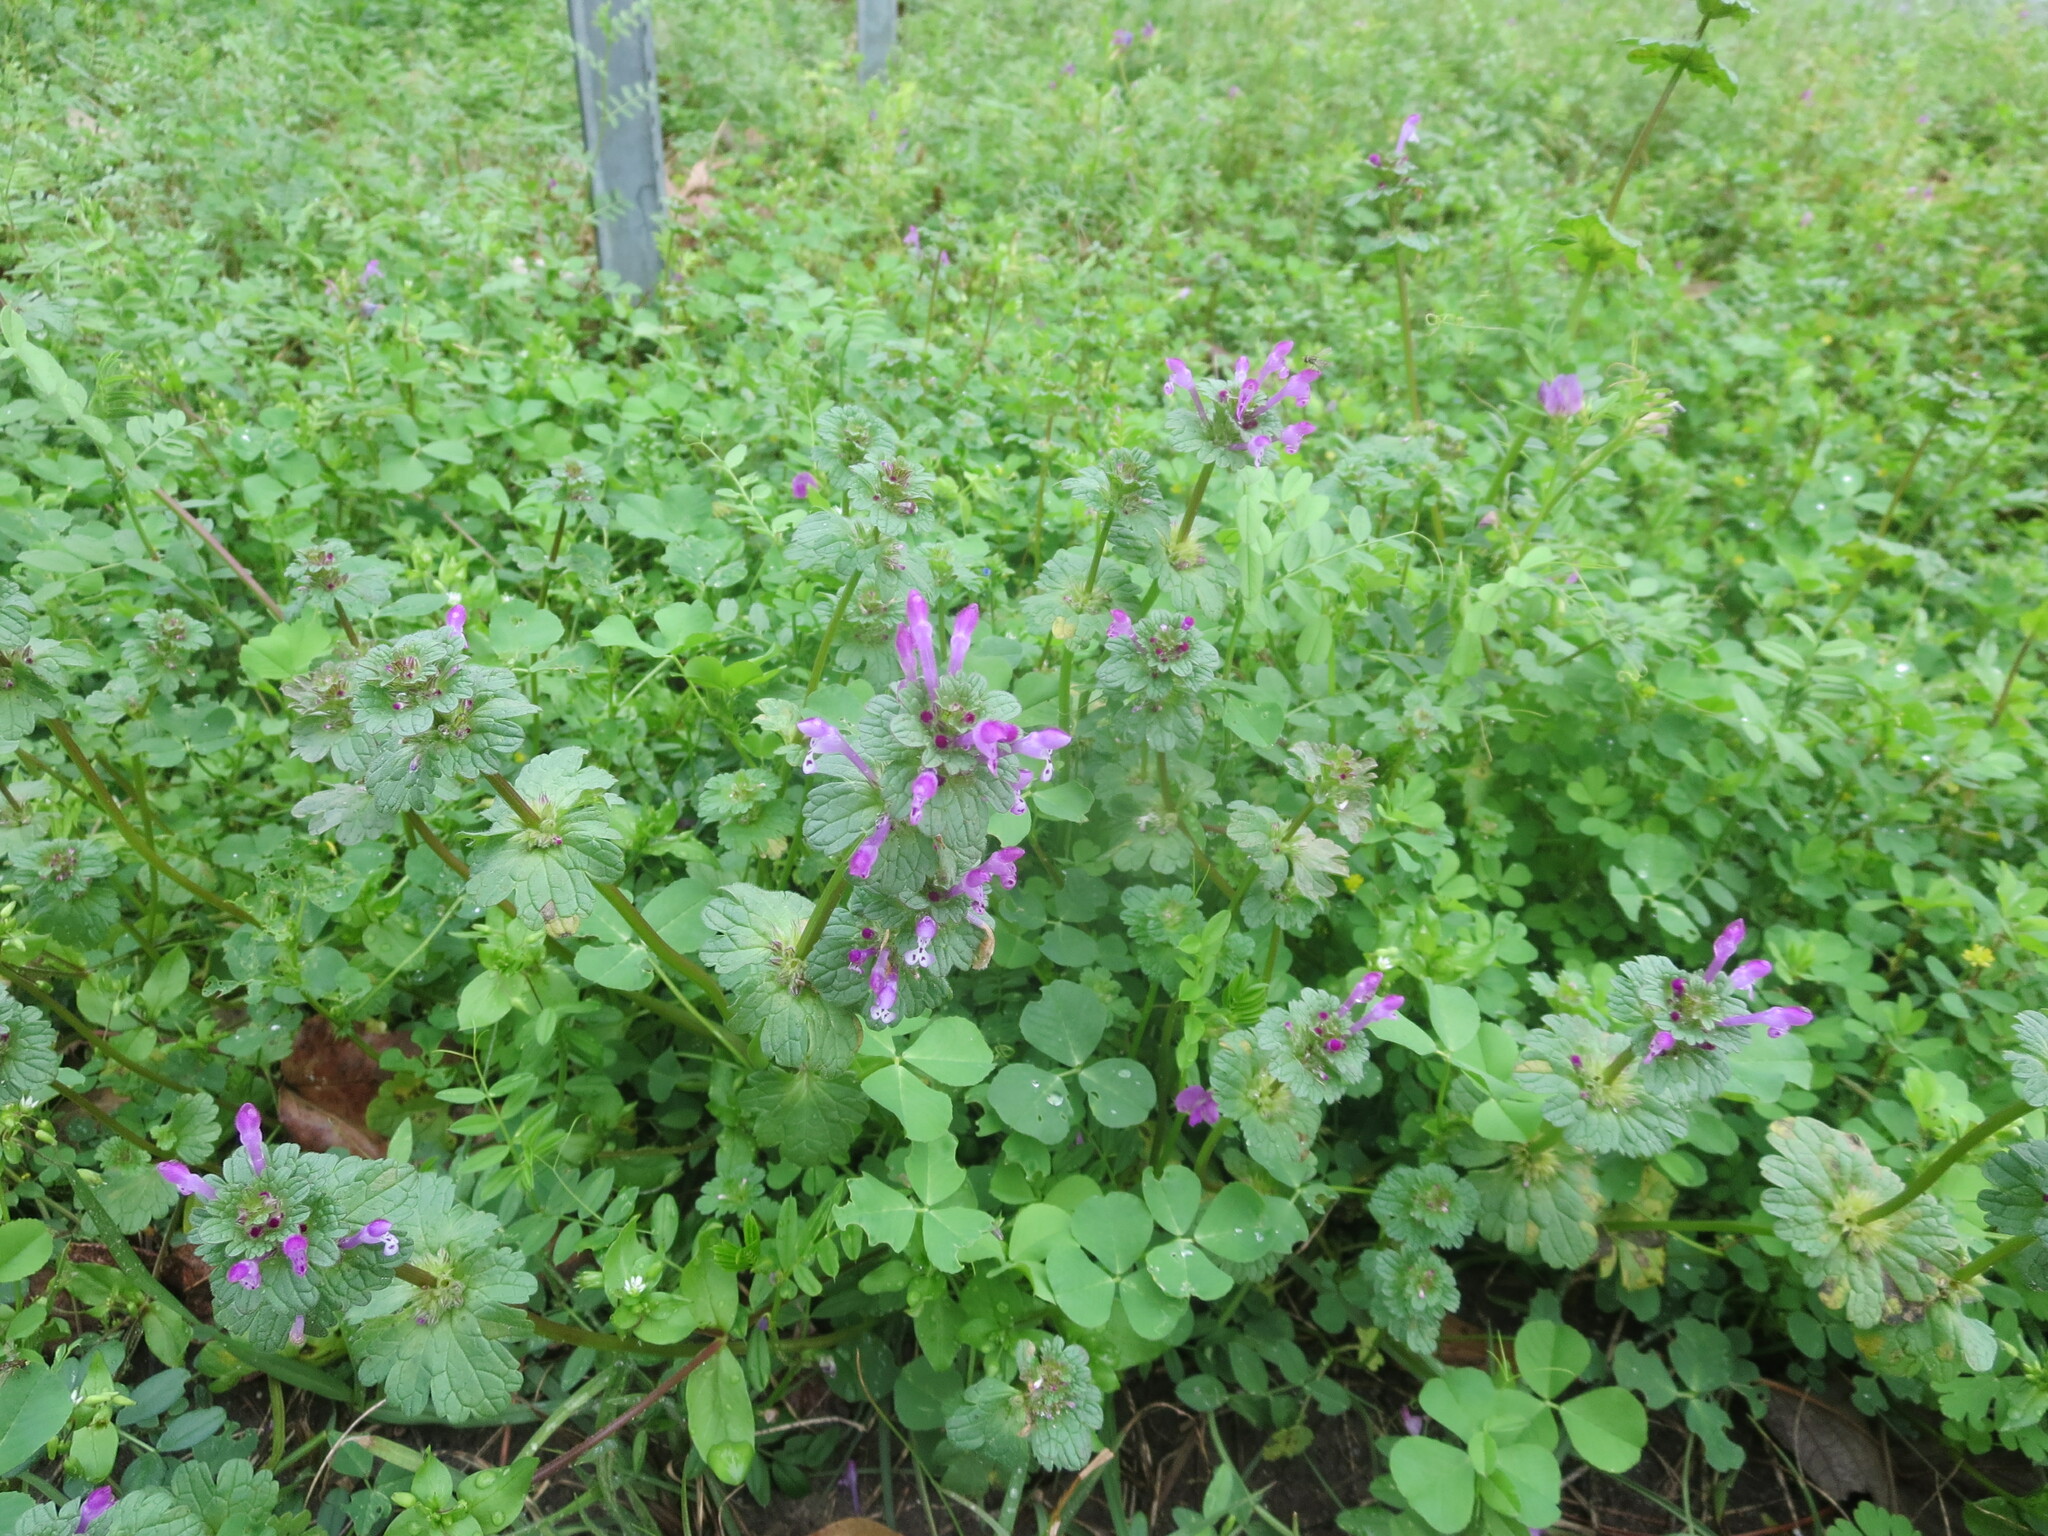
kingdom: Plantae
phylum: Tracheophyta
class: Magnoliopsida
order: Lamiales
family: Lamiaceae
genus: Lamium
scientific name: Lamium amplexicaule
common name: Henbit dead-nettle
